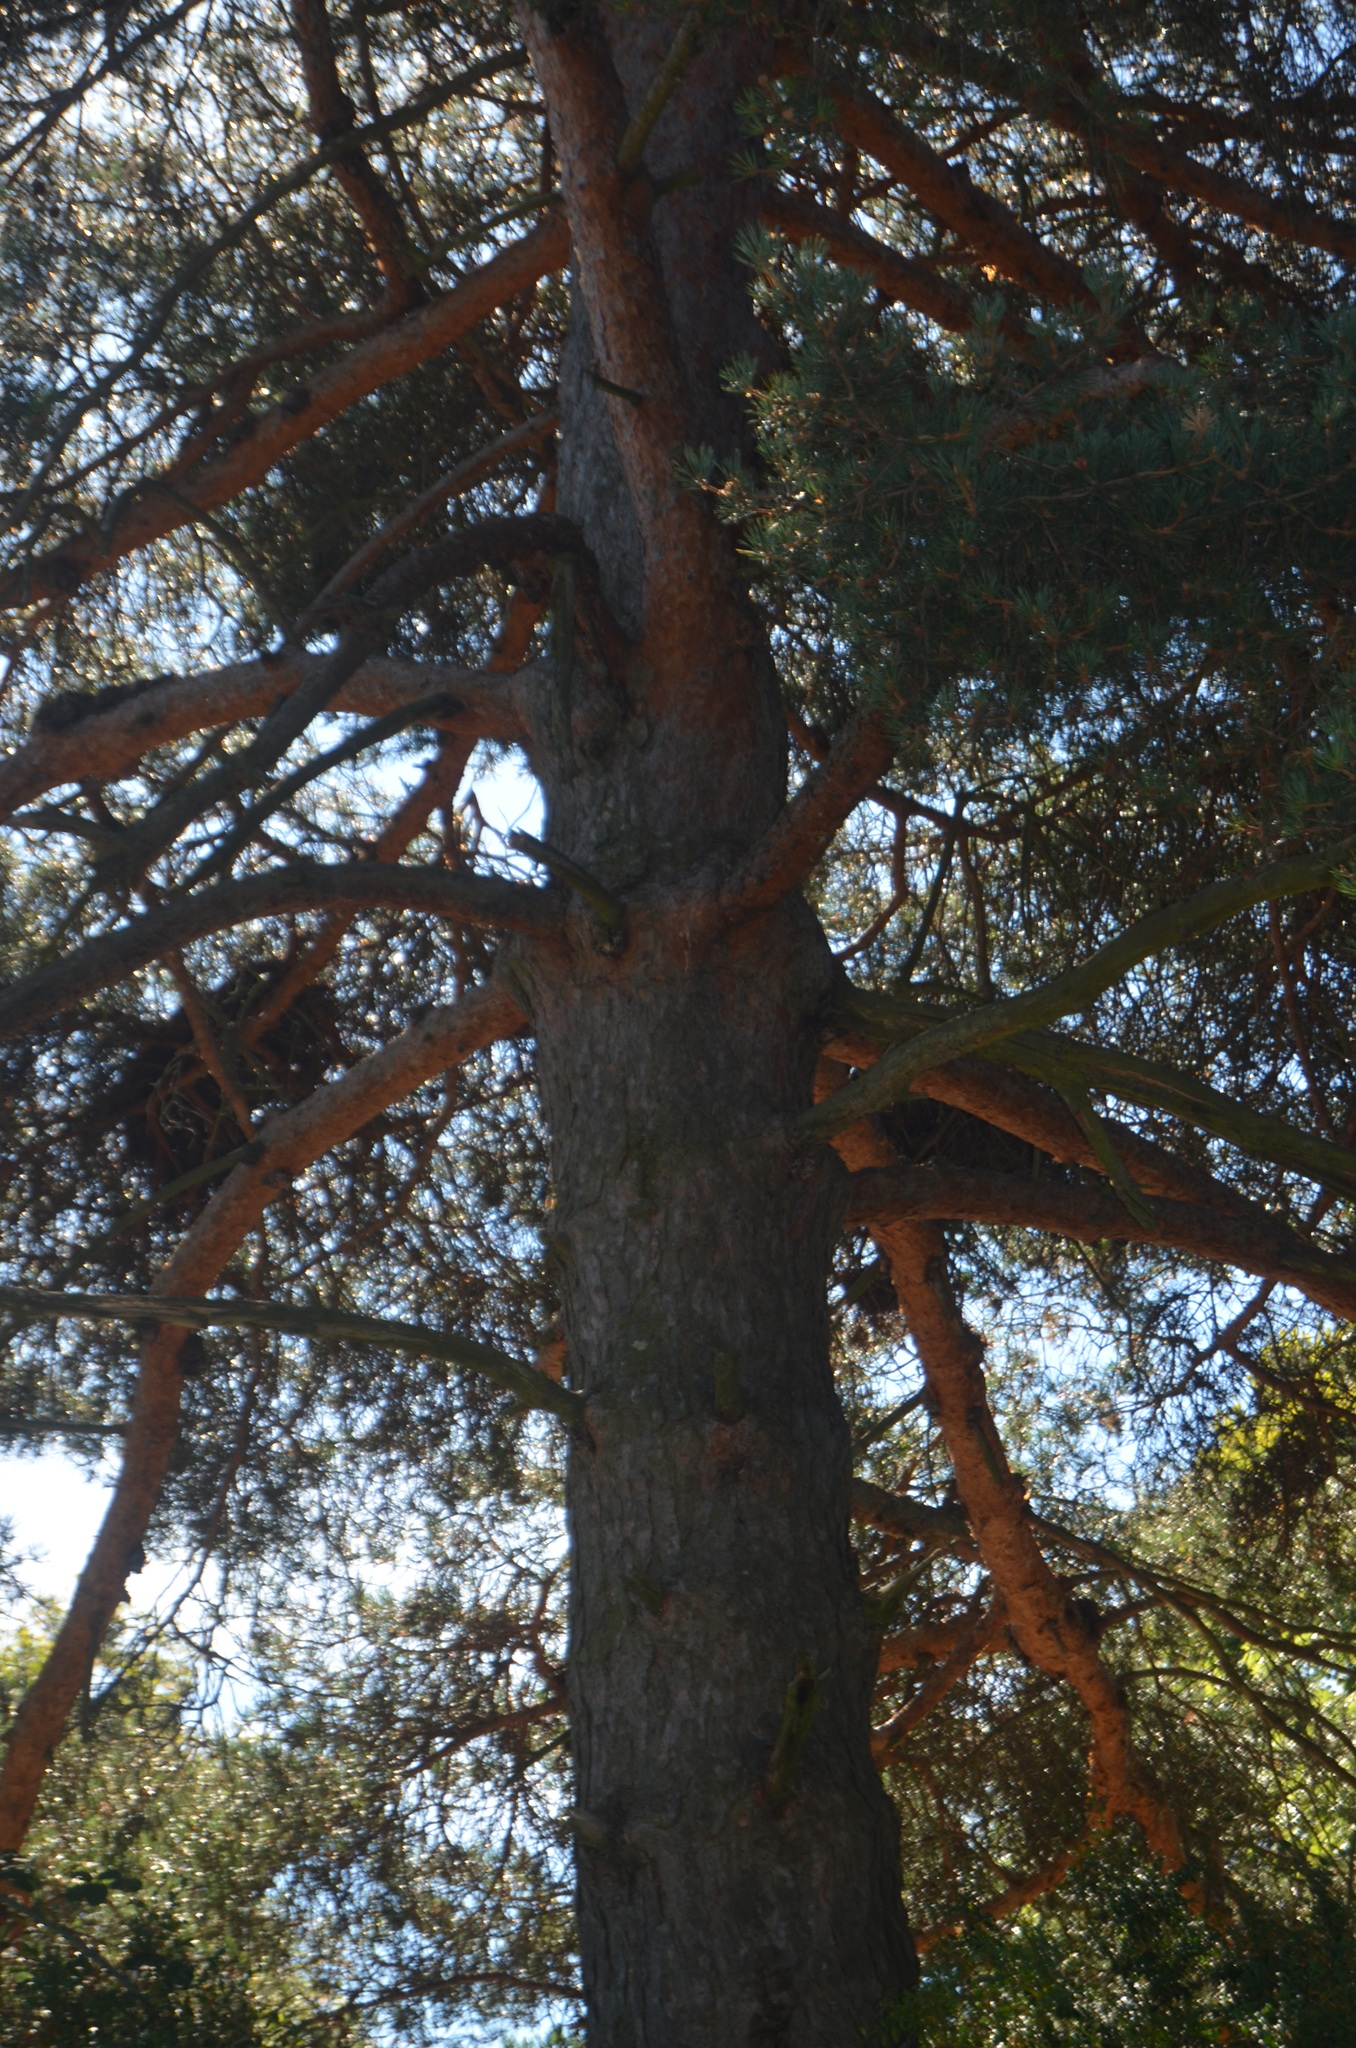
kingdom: Plantae
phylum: Tracheophyta
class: Pinopsida
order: Pinales
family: Pinaceae
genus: Pinus
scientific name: Pinus sylvestris
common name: Scots pine
